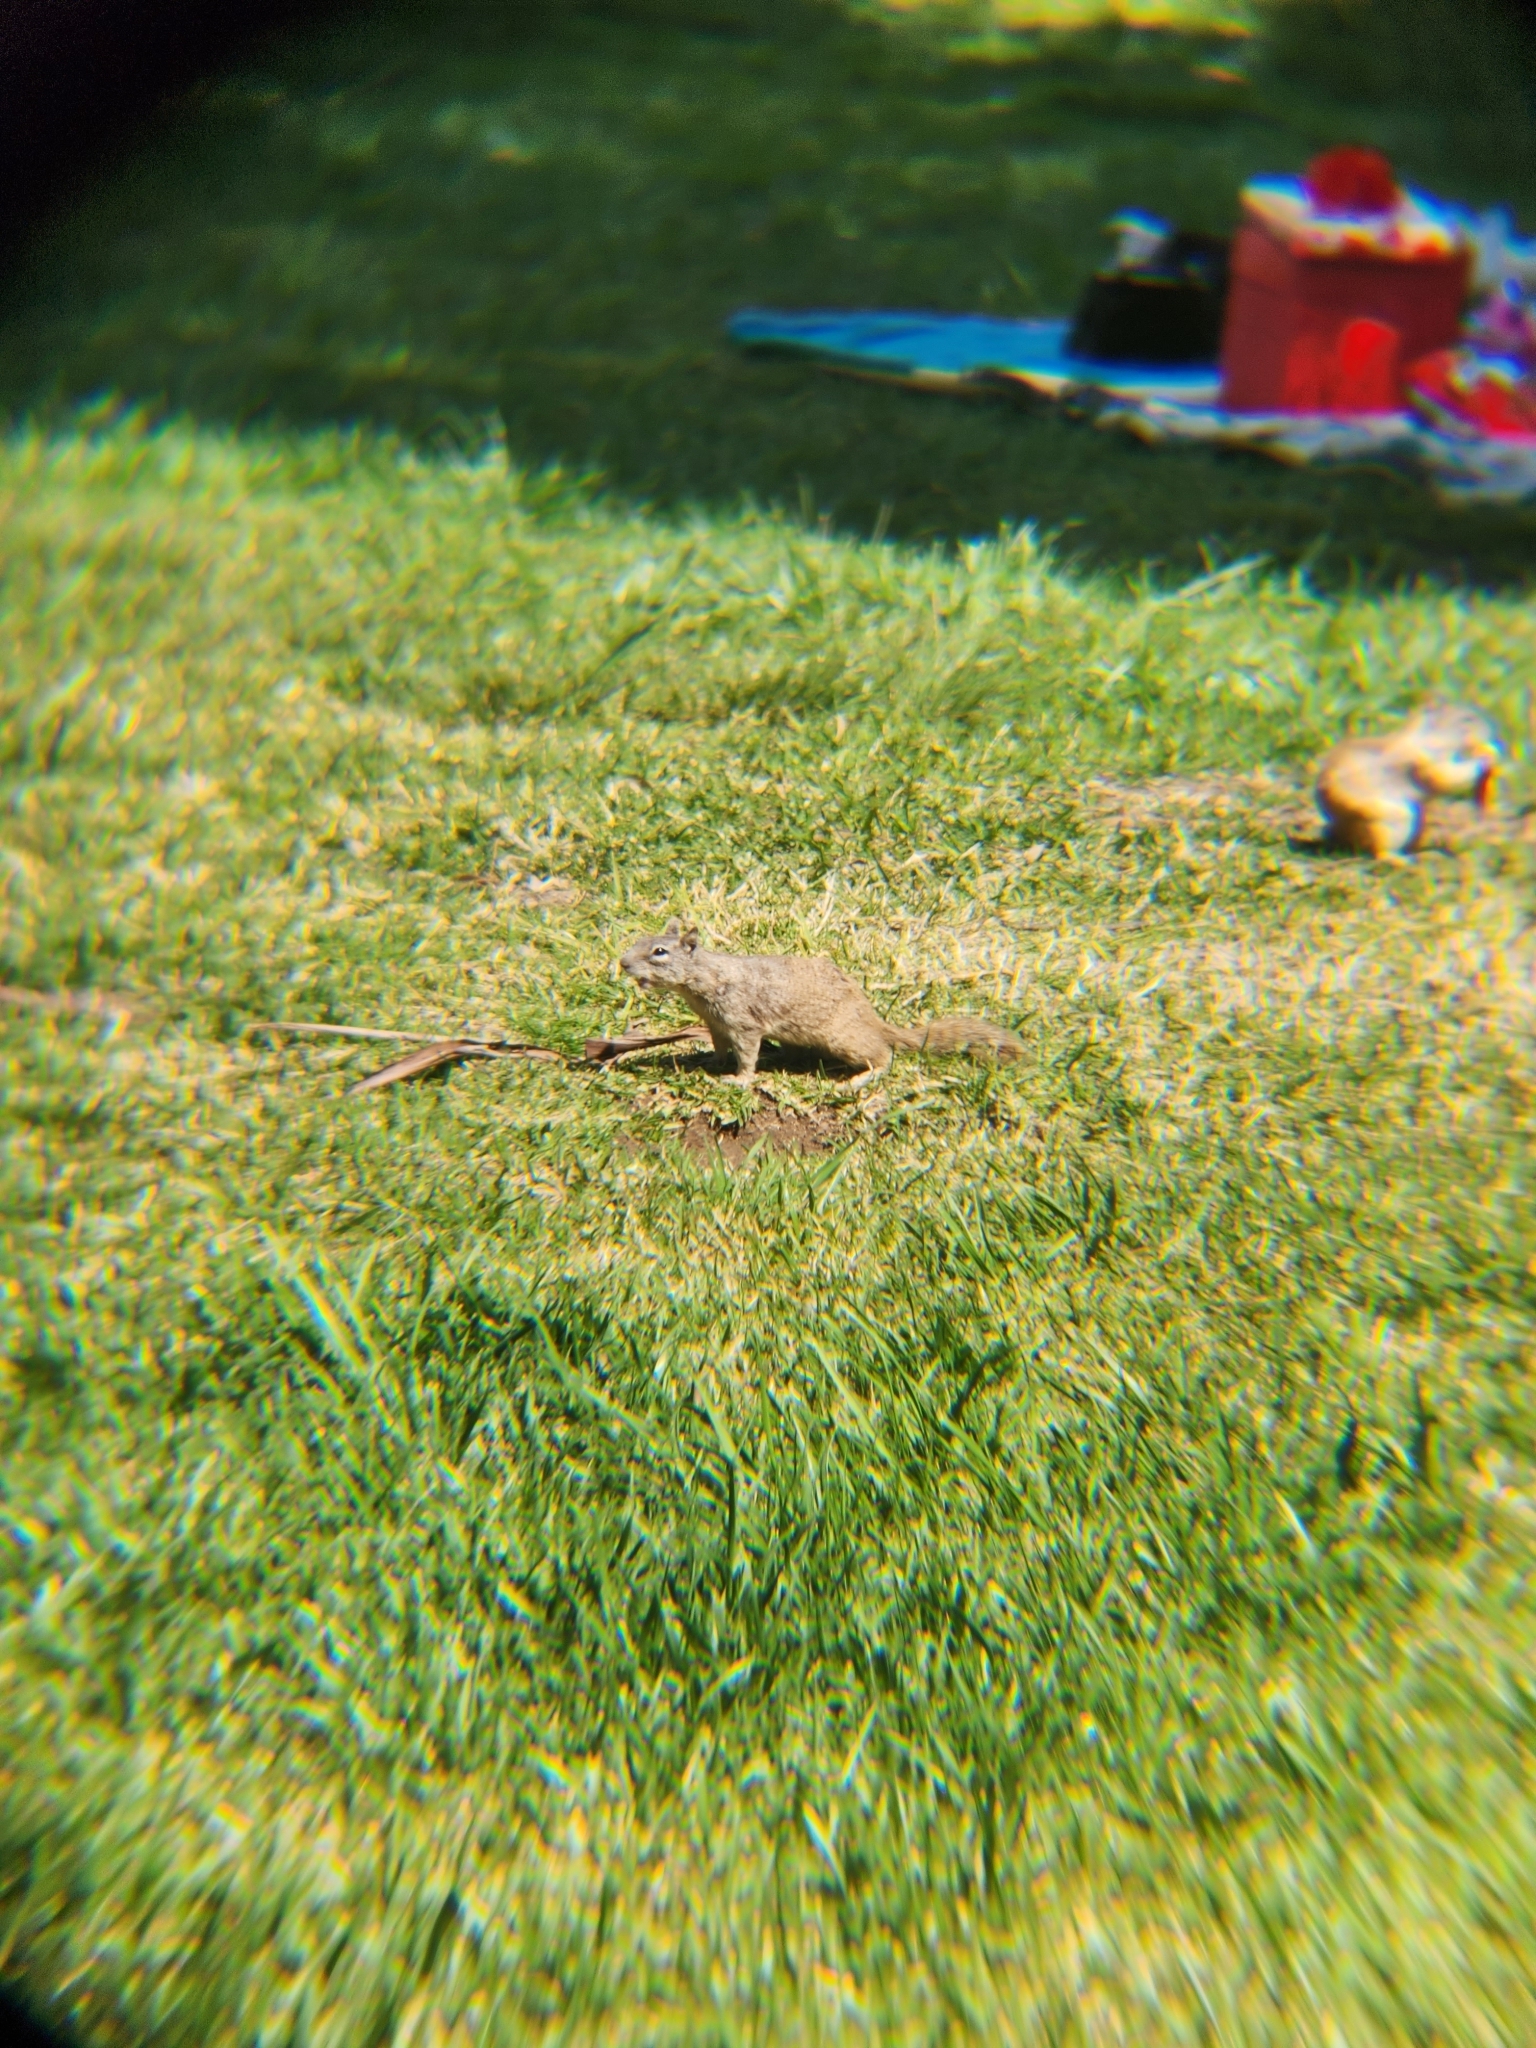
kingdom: Animalia
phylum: Chordata
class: Mammalia
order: Rodentia
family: Sciuridae
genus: Otospermophilus
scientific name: Otospermophilus beecheyi
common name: California ground squirrel
